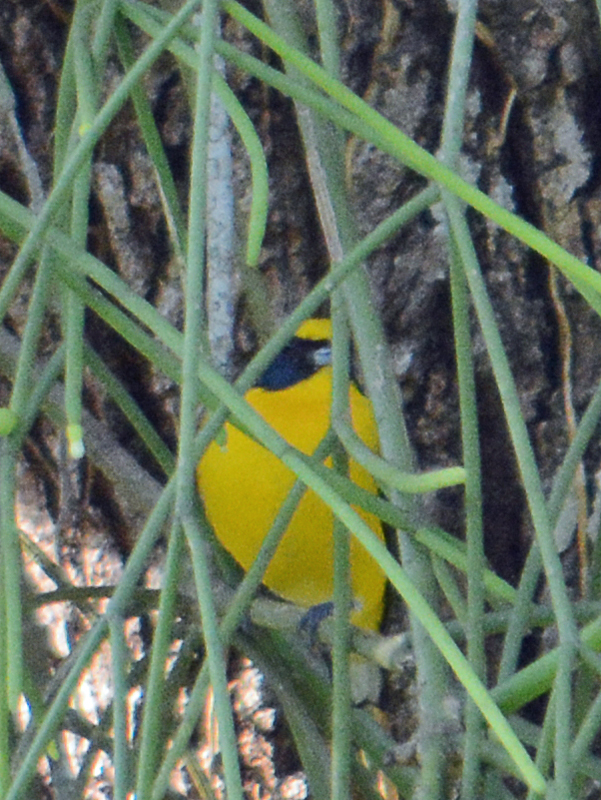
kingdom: Animalia
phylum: Chordata
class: Aves
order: Passeriformes
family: Fringillidae
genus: Euphonia
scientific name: Euphonia hirundinacea
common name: Yellow-throated euphonia
